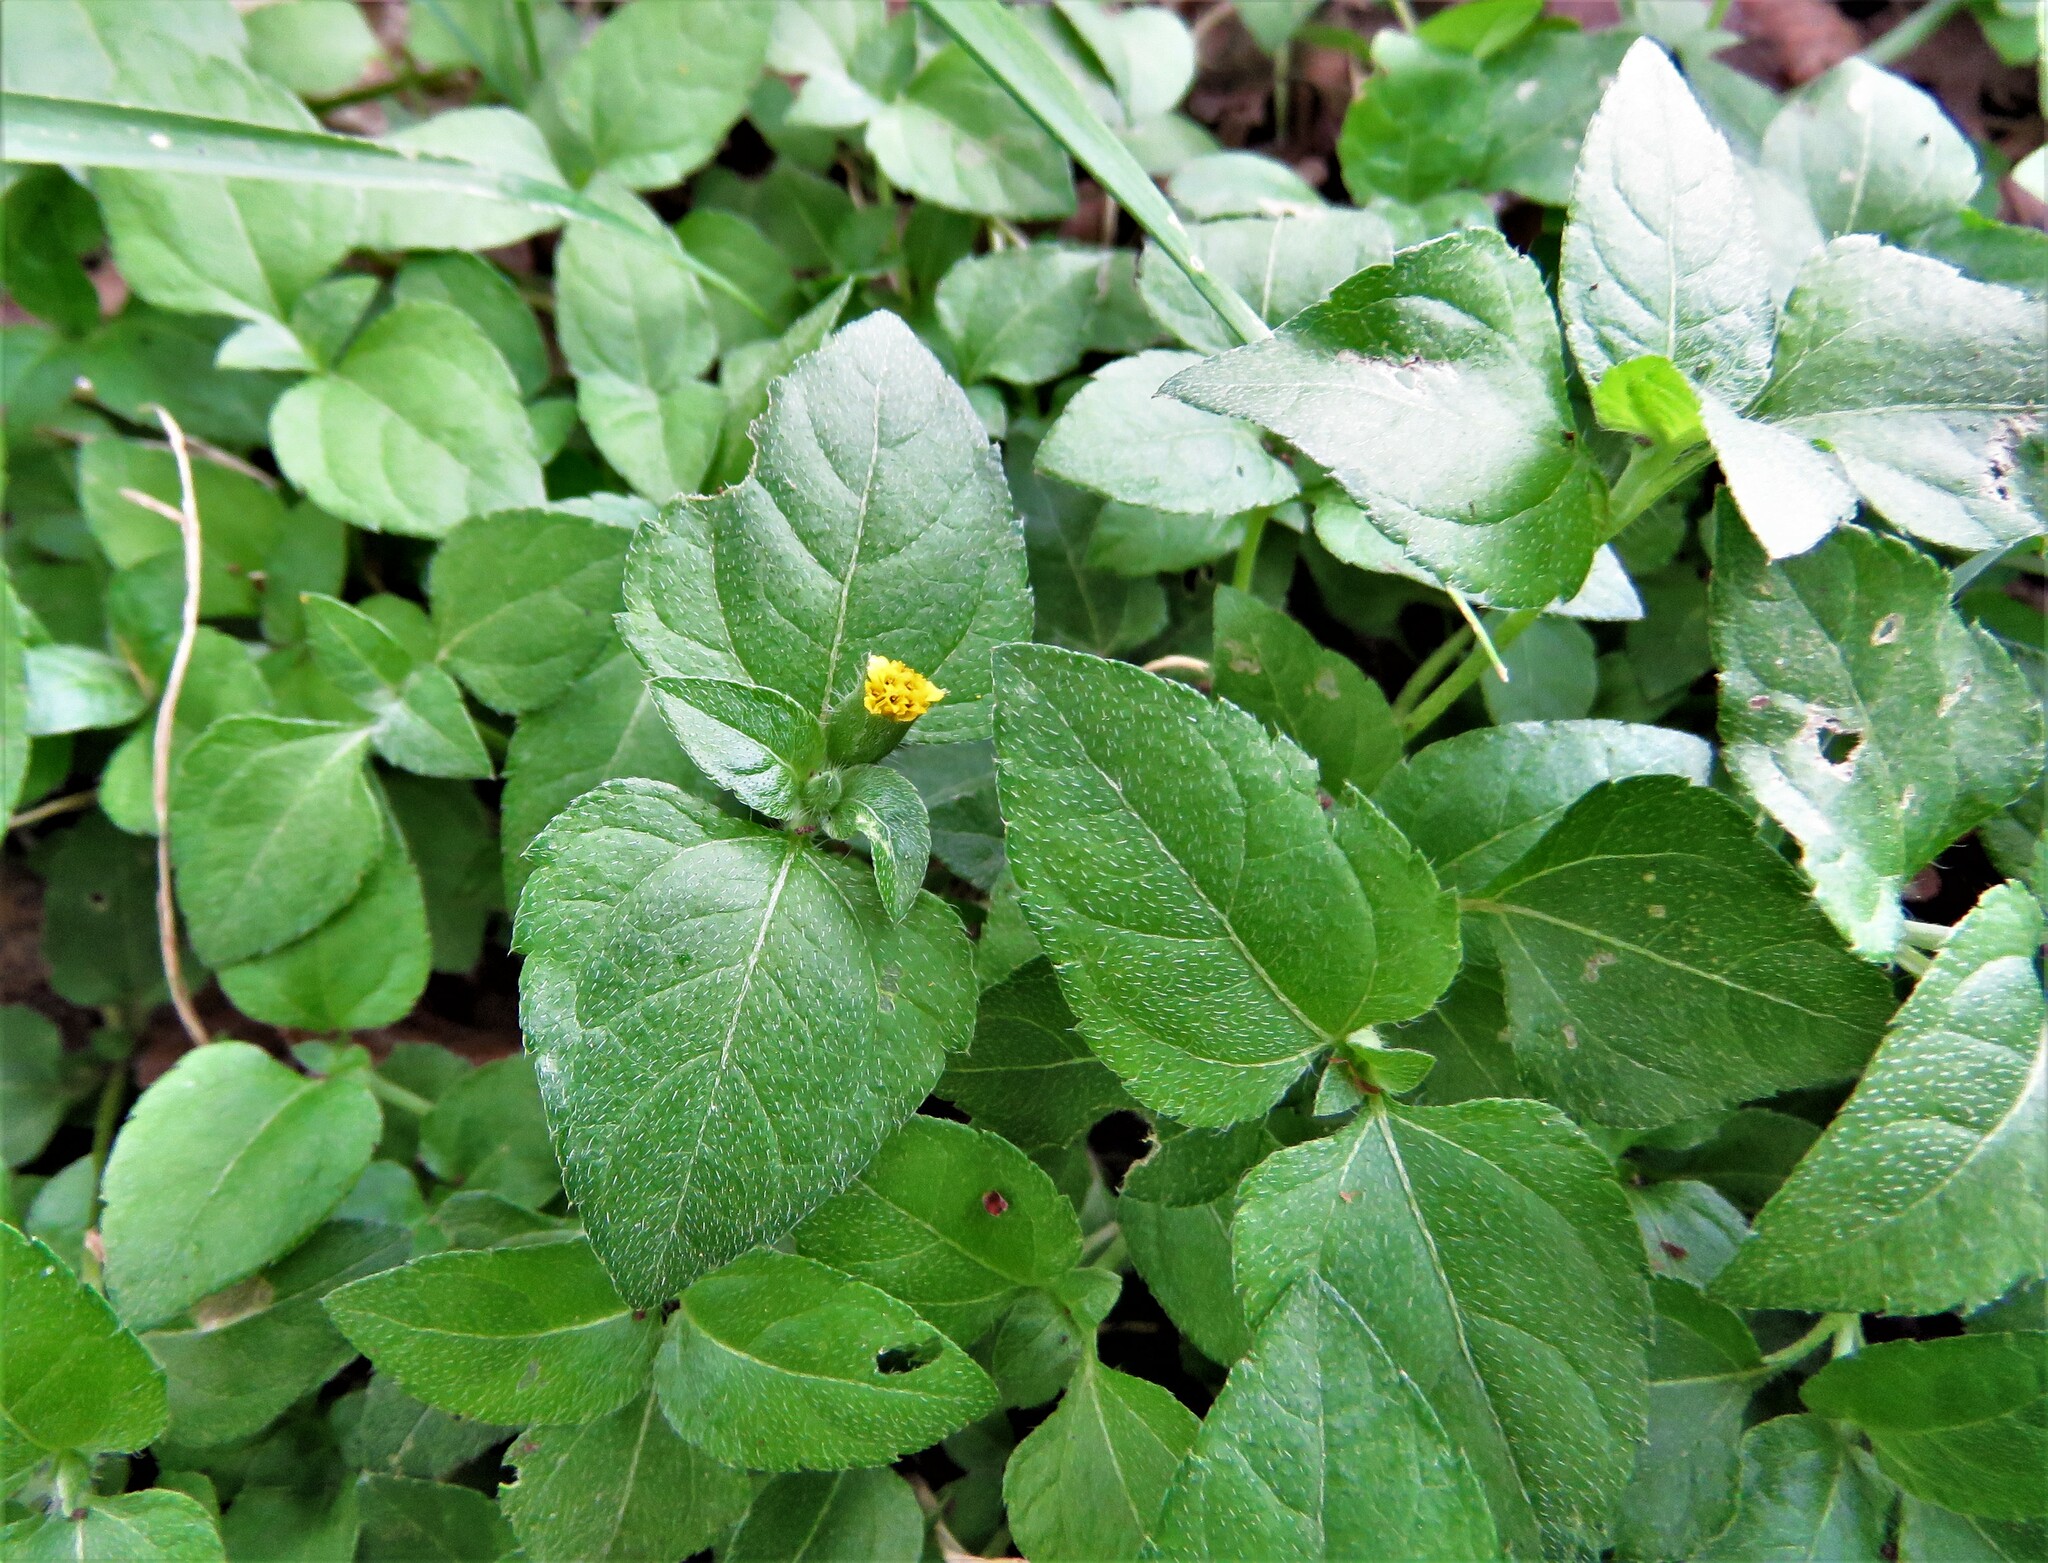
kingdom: Plantae
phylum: Tracheophyta
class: Magnoliopsida
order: Asterales
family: Asteraceae
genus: Calyptocarpus
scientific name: Calyptocarpus vialis
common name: Straggler daisy
